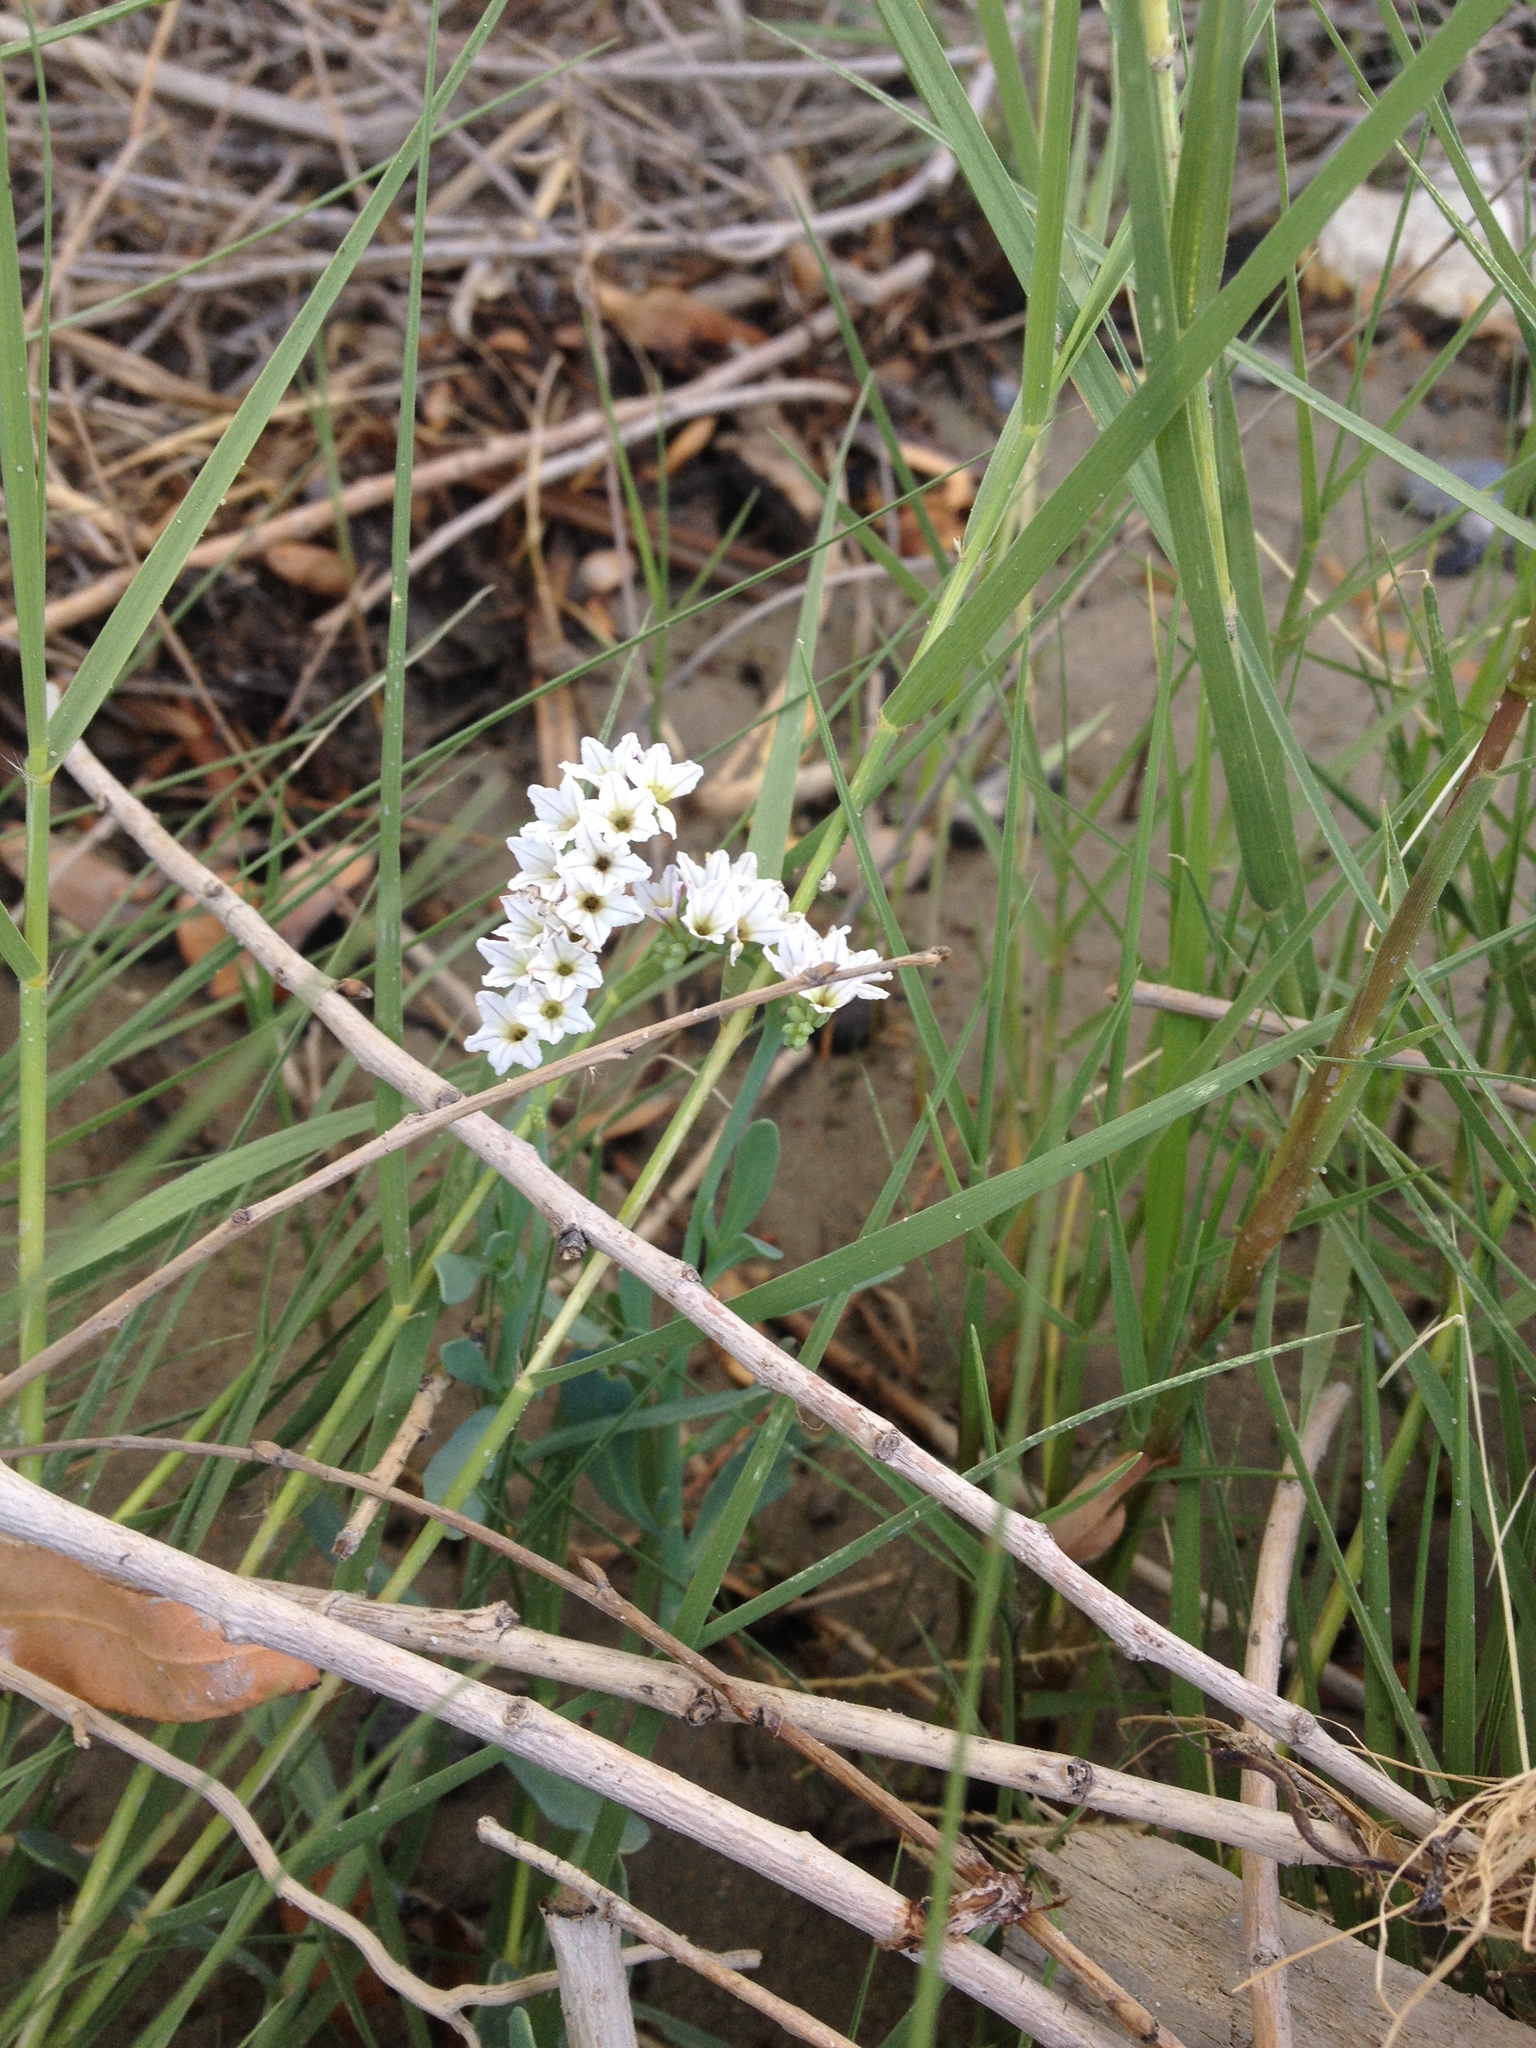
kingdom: Plantae
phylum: Tracheophyta
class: Magnoliopsida
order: Boraginales
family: Heliotropiaceae
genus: Heliotropium
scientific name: Heliotropium curassavicum
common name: Seaside heliotrope
